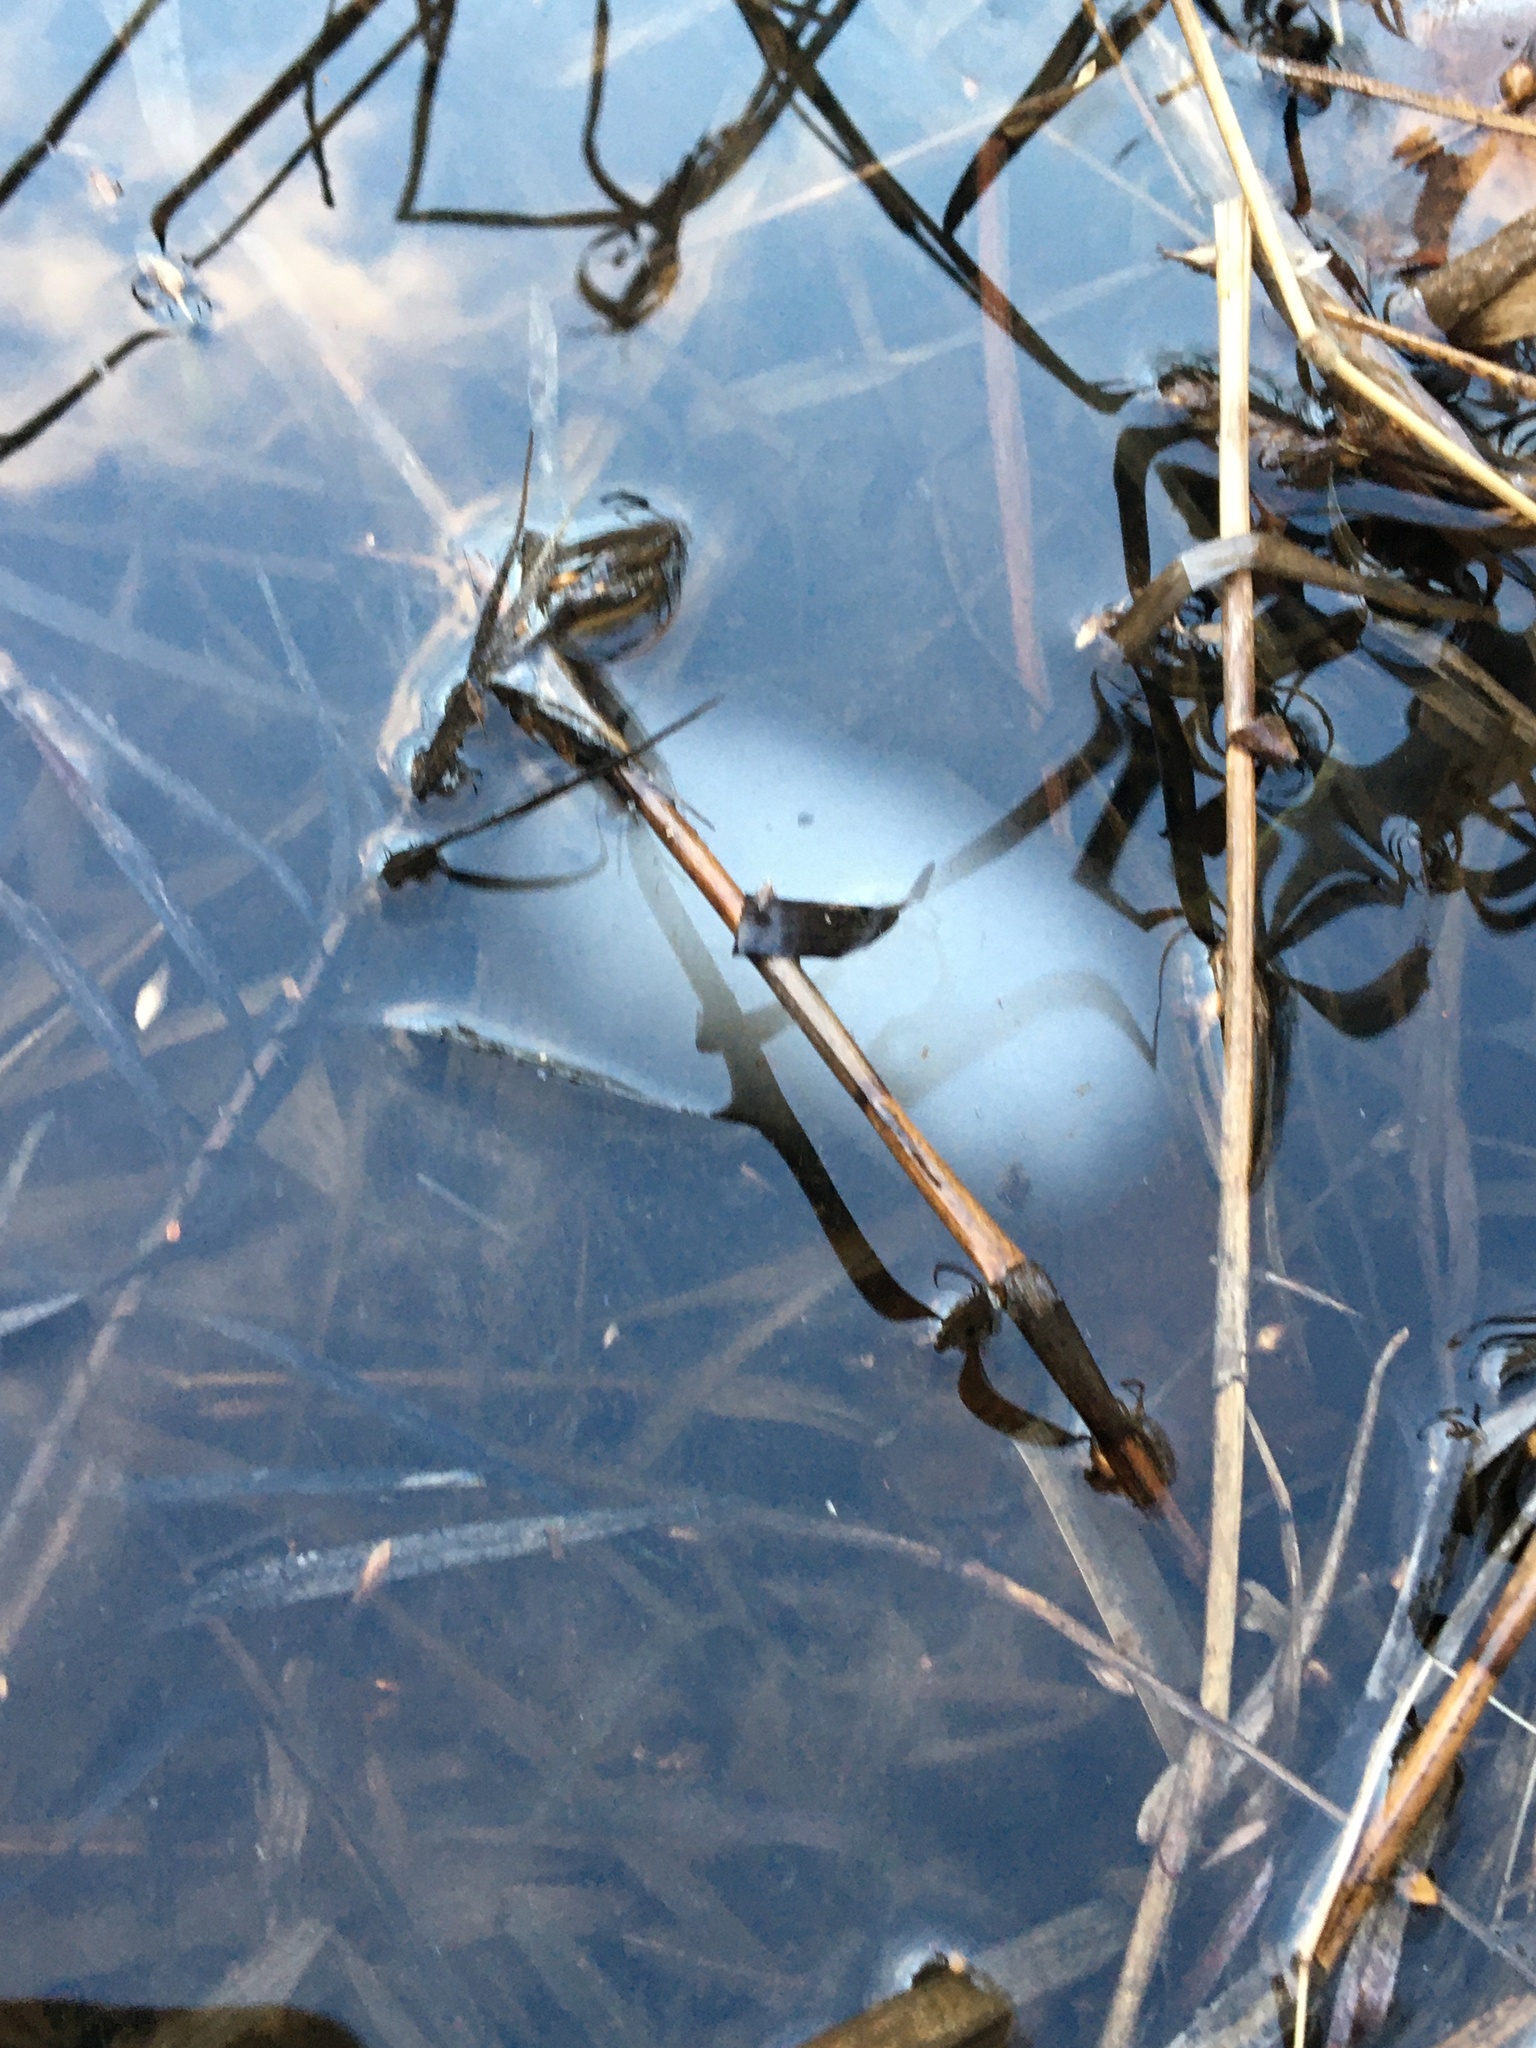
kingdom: Animalia
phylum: Chordata
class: Amphibia
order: Caudata
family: Ambystomatidae
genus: Ambystoma
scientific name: Ambystoma maculatum
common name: Spotted salamander
